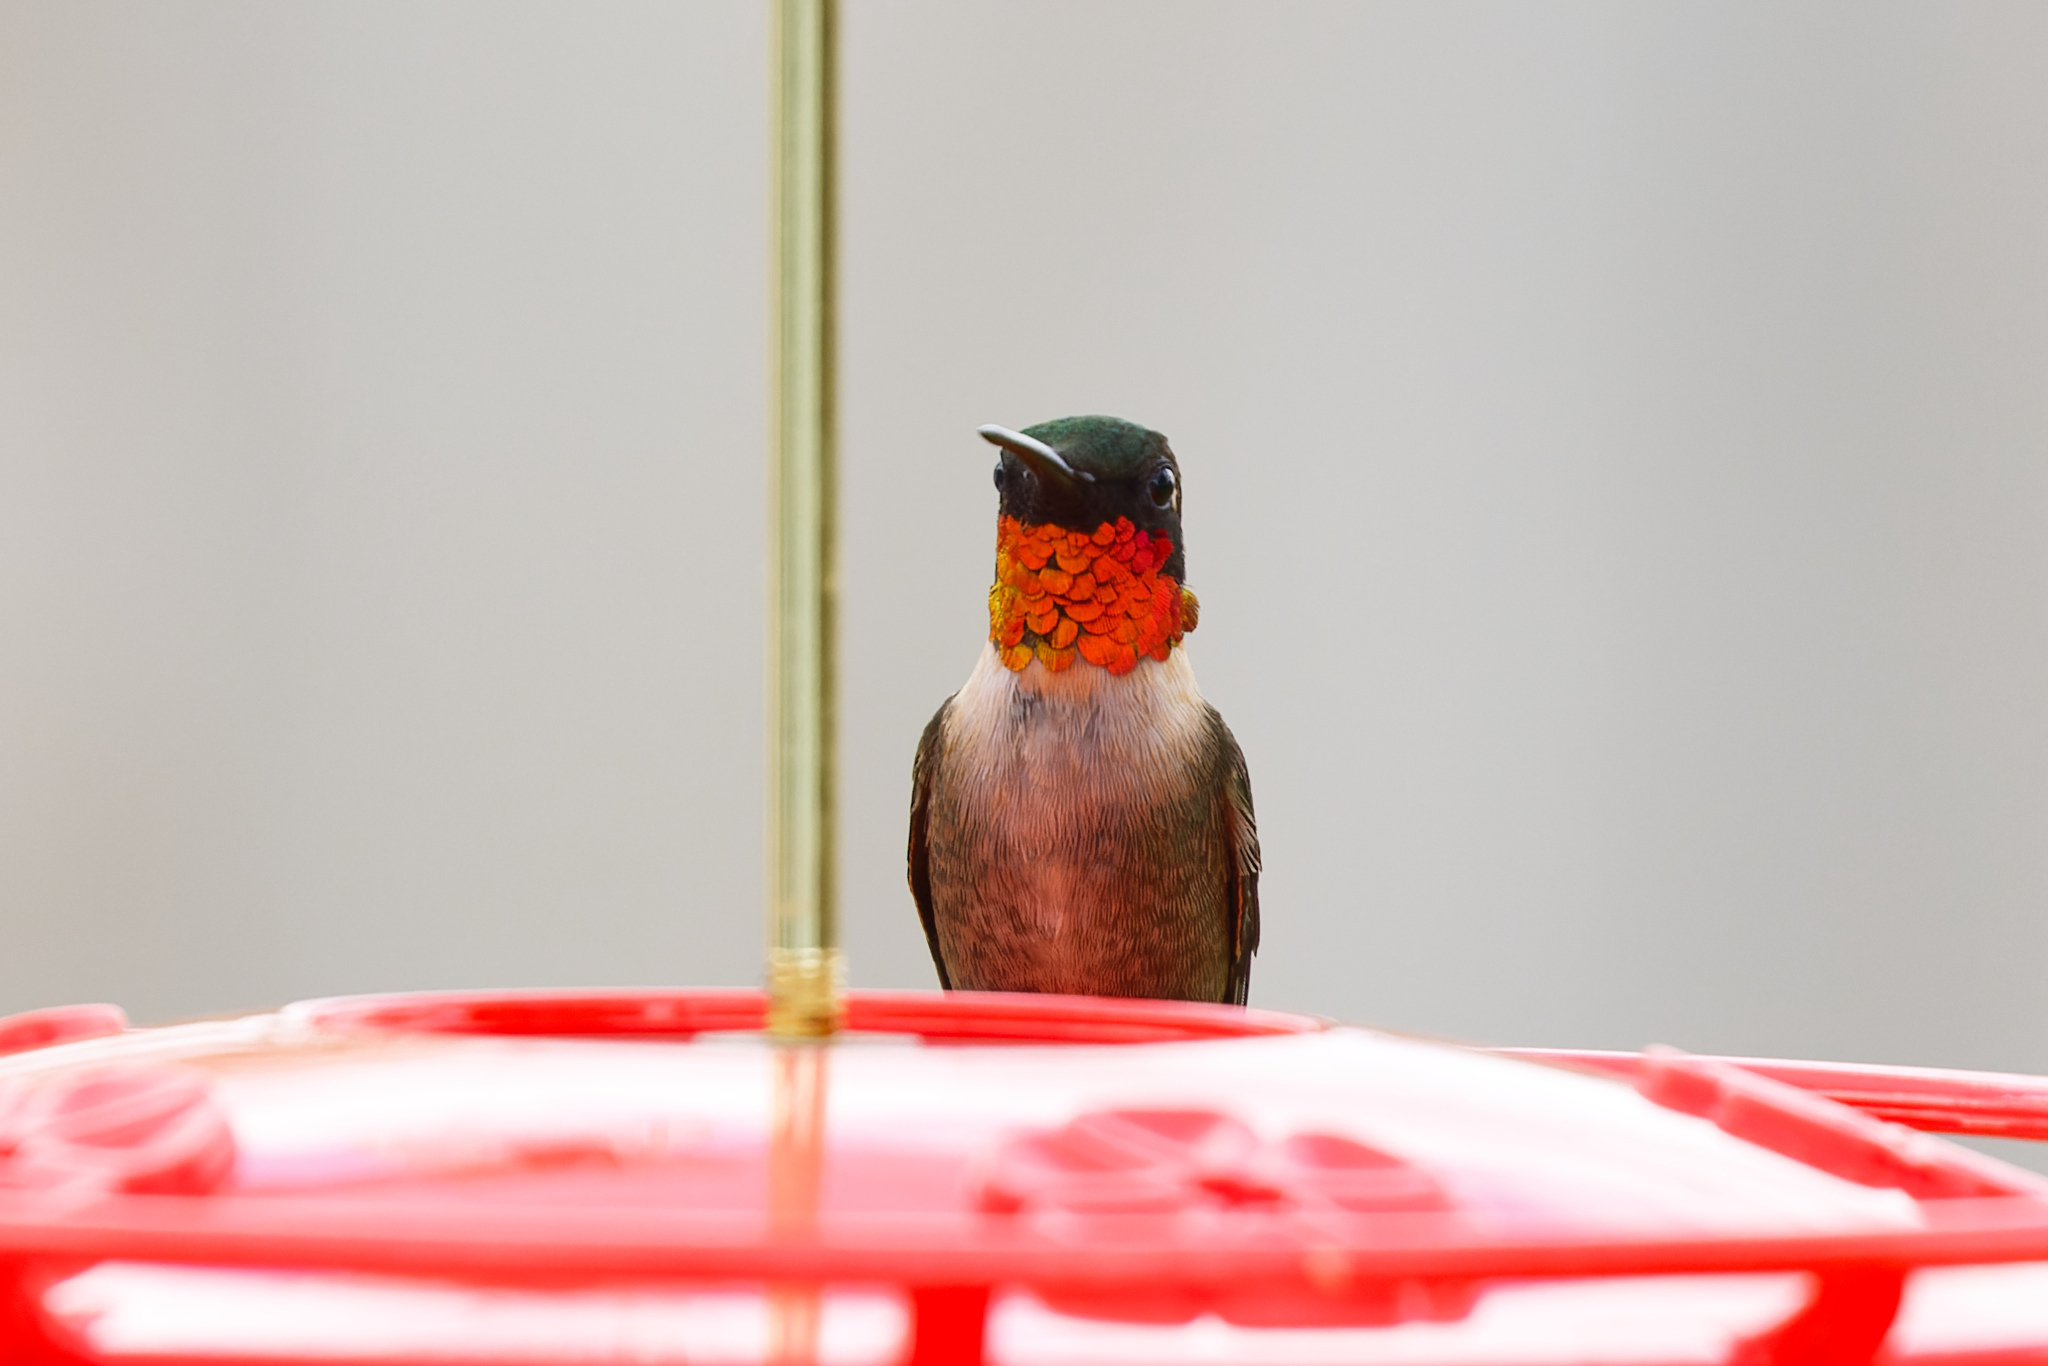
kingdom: Animalia
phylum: Chordata
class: Aves
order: Apodiformes
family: Trochilidae
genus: Archilochus
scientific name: Archilochus colubris
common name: Ruby-throated hummingbird
